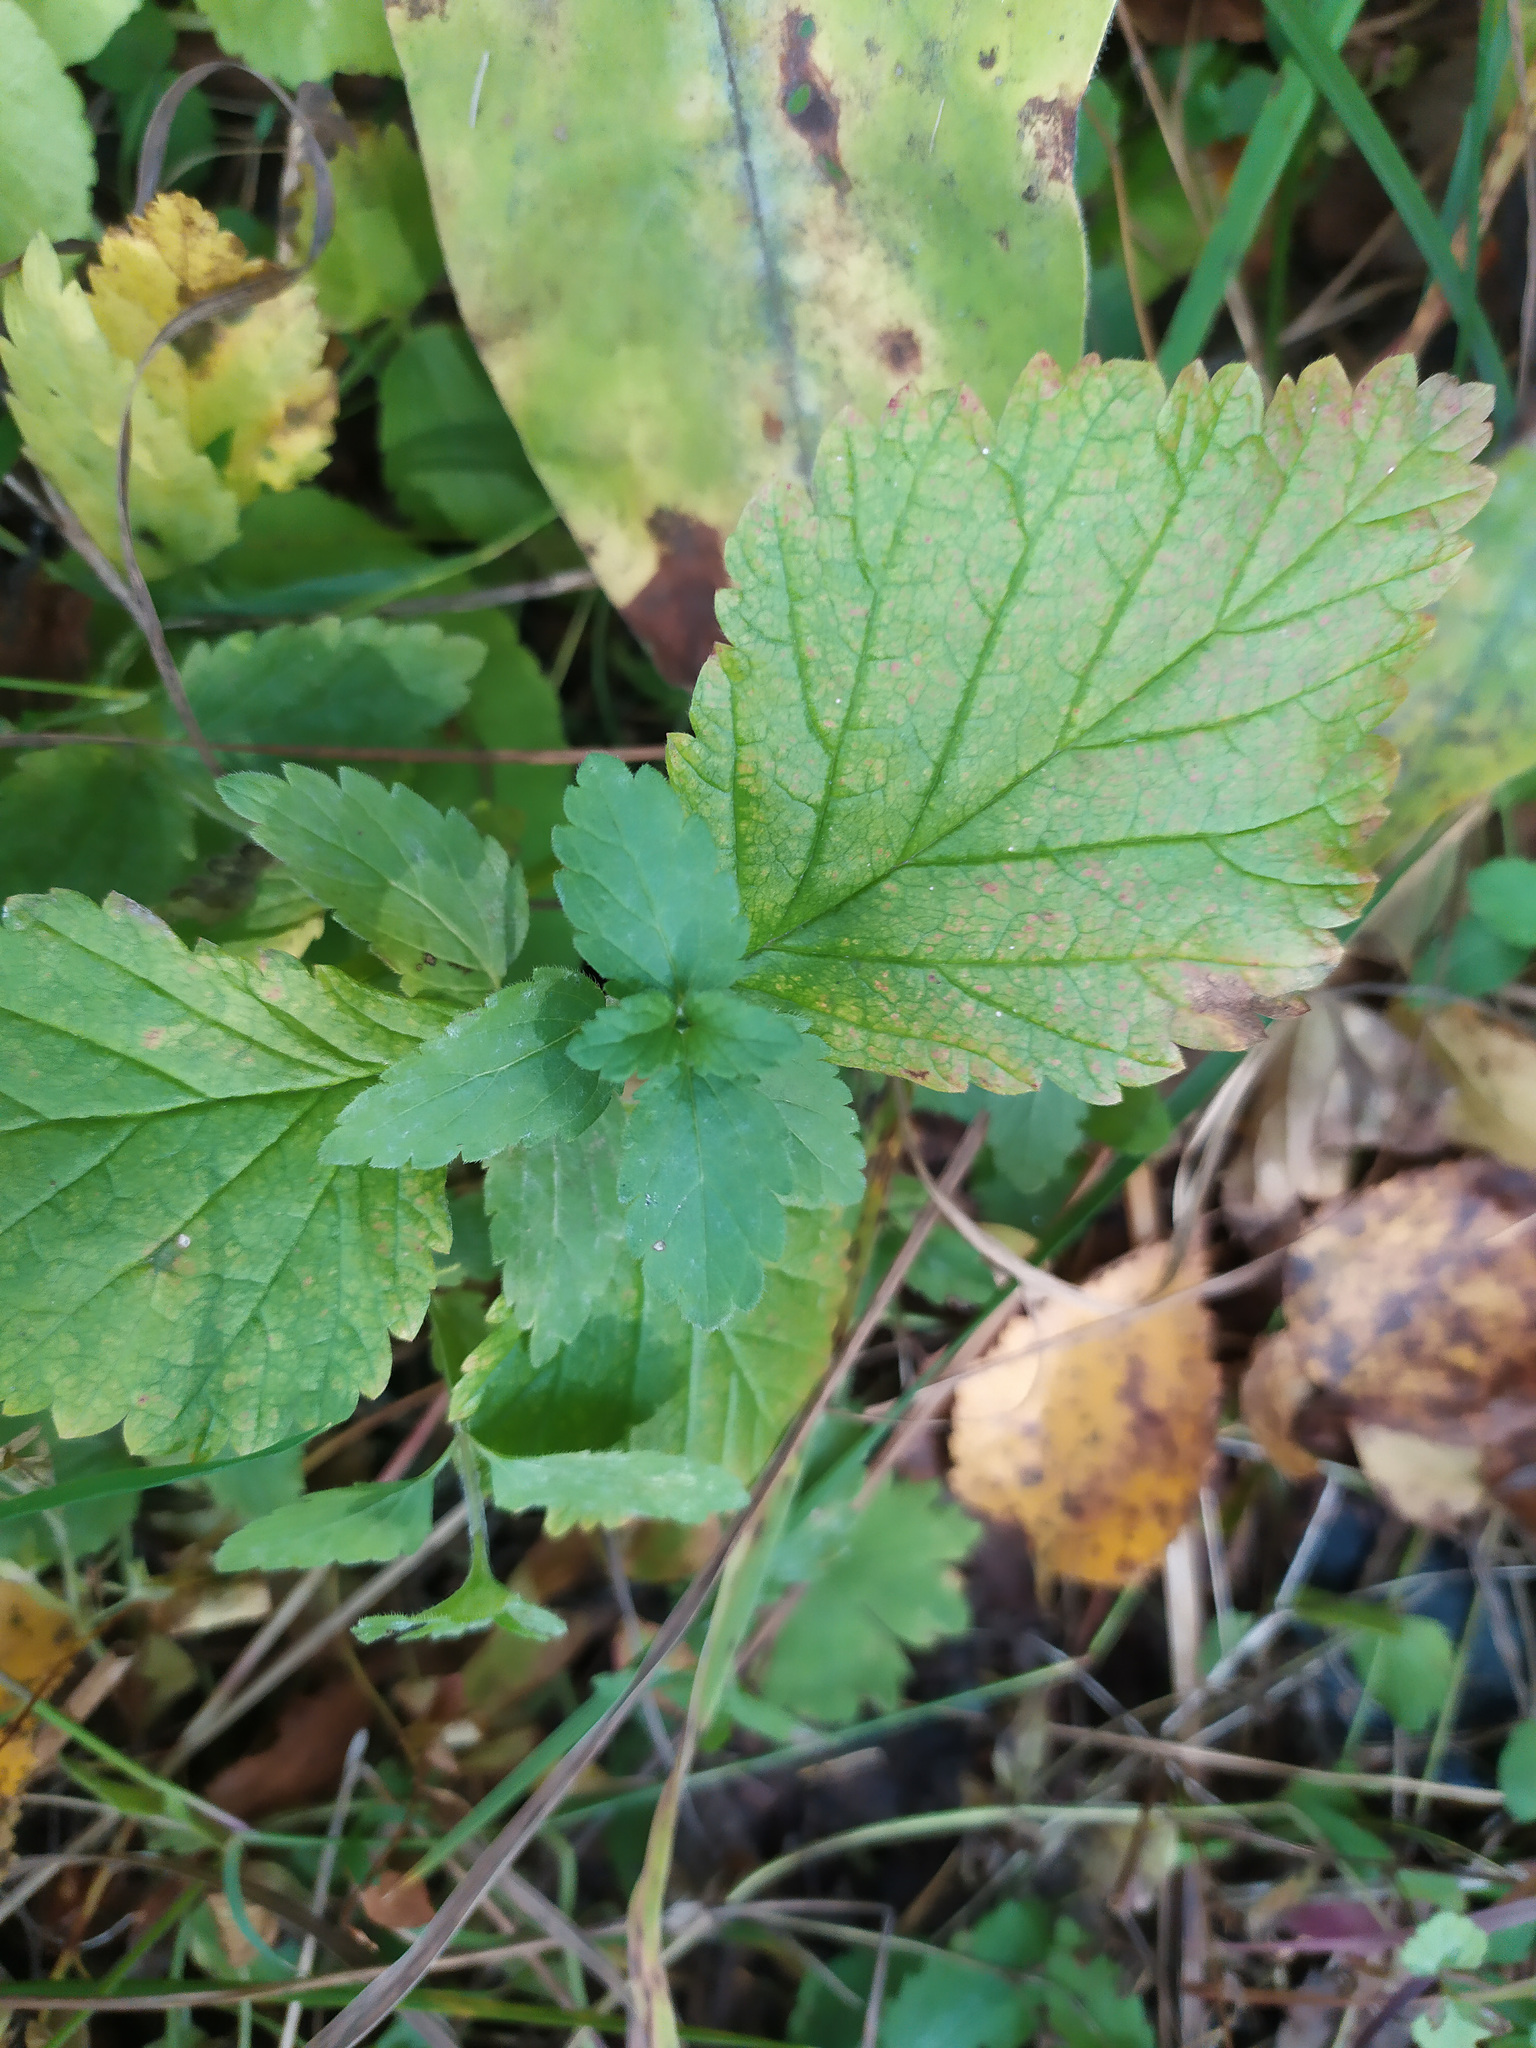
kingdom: Plantae
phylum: Tracheophyta
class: Magnoliopsida
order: Lamiales
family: Plantaginaceae
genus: Veronica
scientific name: Veronica chamaedrys
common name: Germander speedwell
